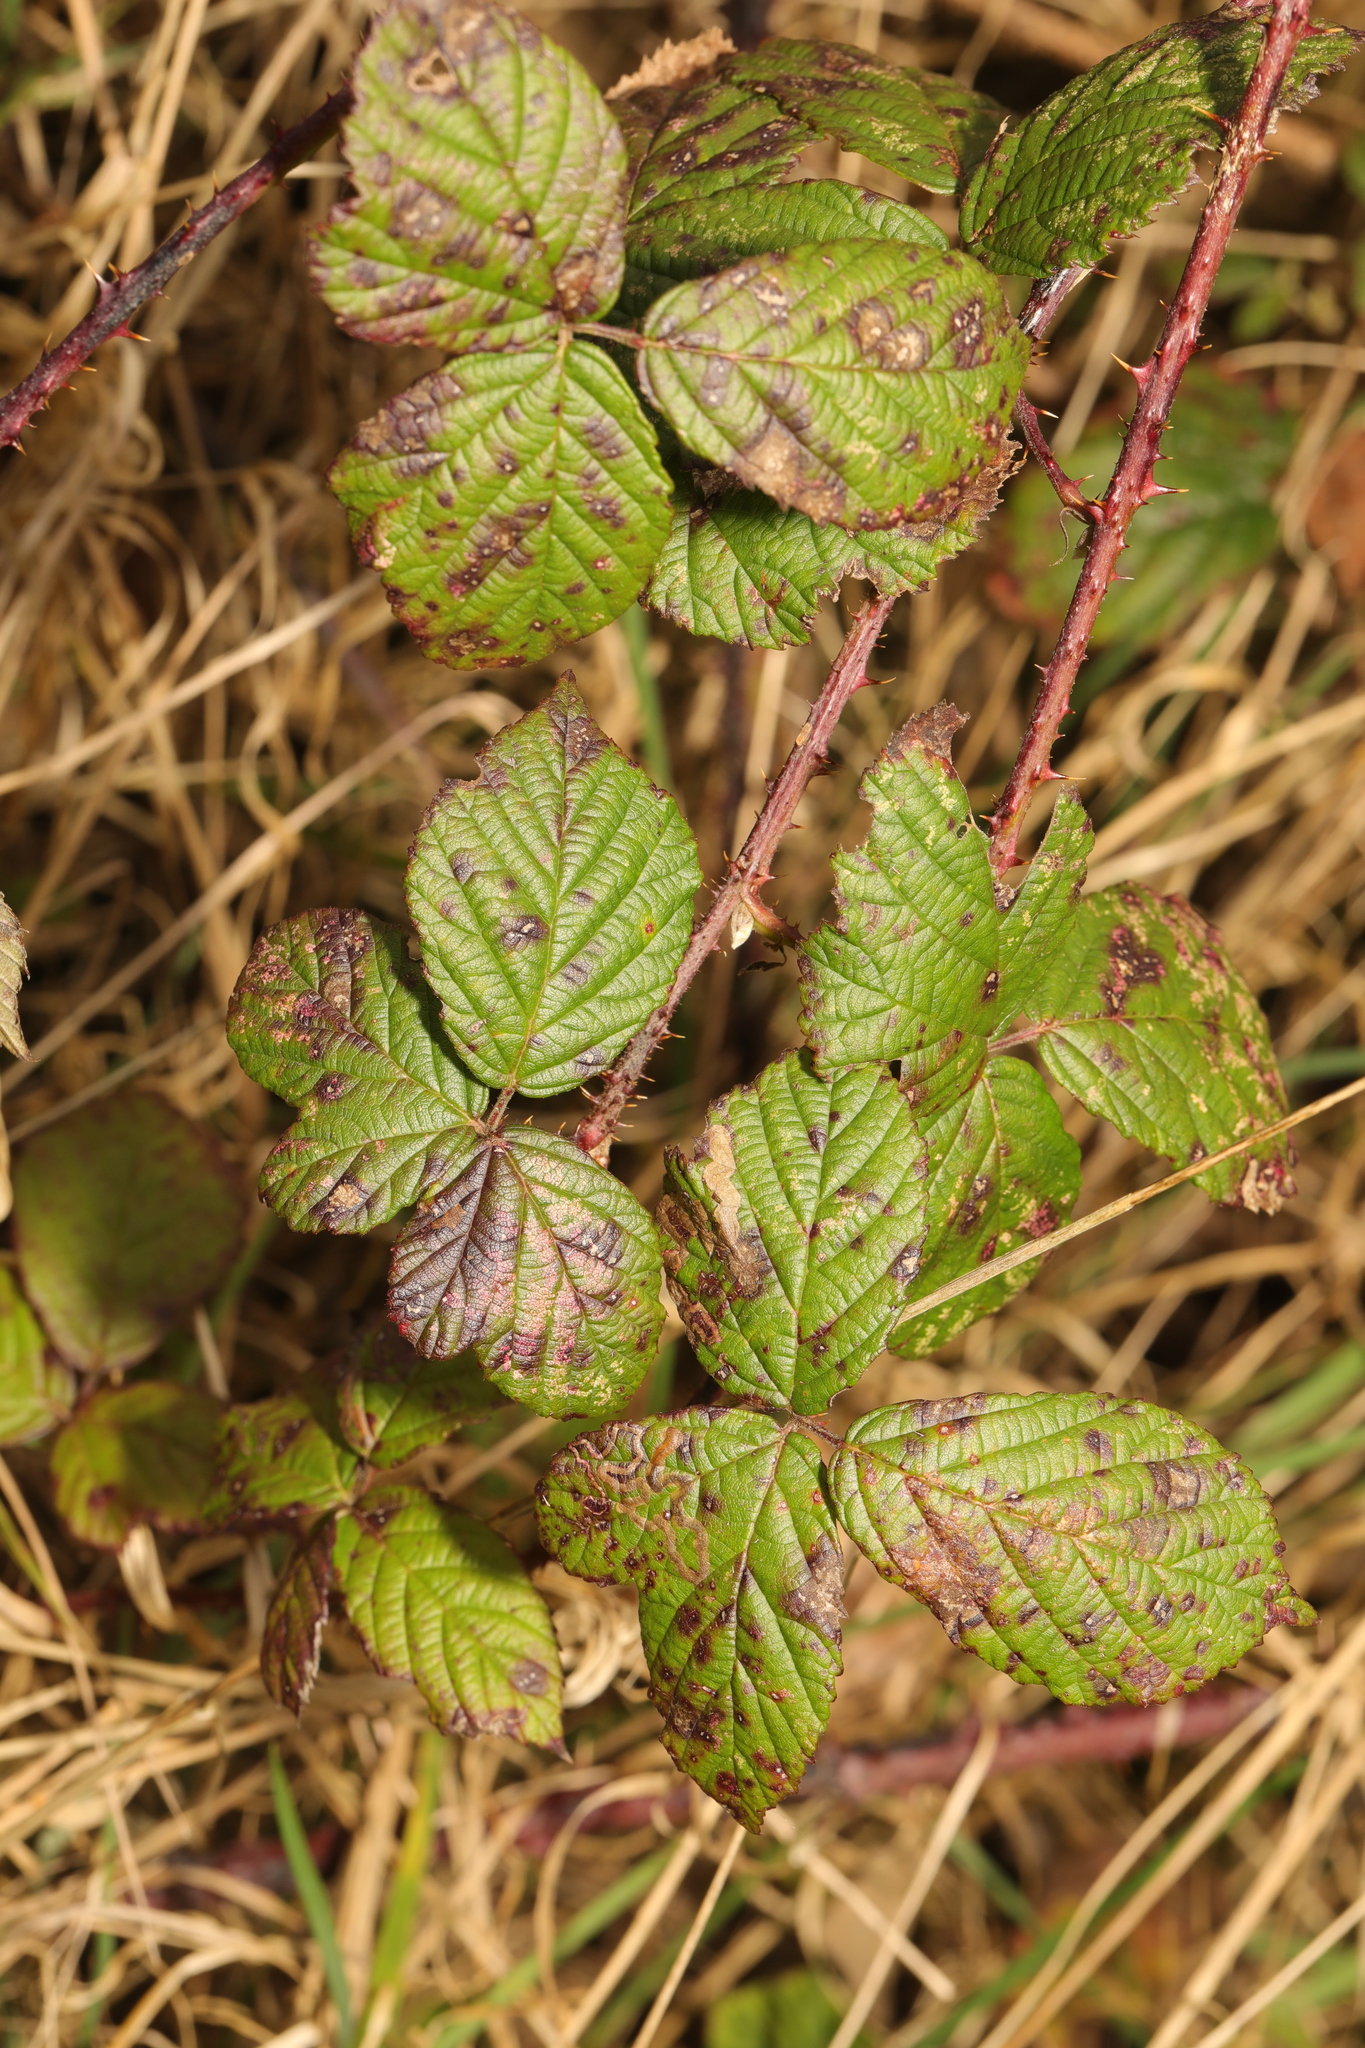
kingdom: Plantae
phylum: Tracheophyta
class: Magnoliopsida
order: Rosales
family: Rosaceae
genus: Rubus
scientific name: Rubus horrefactus
